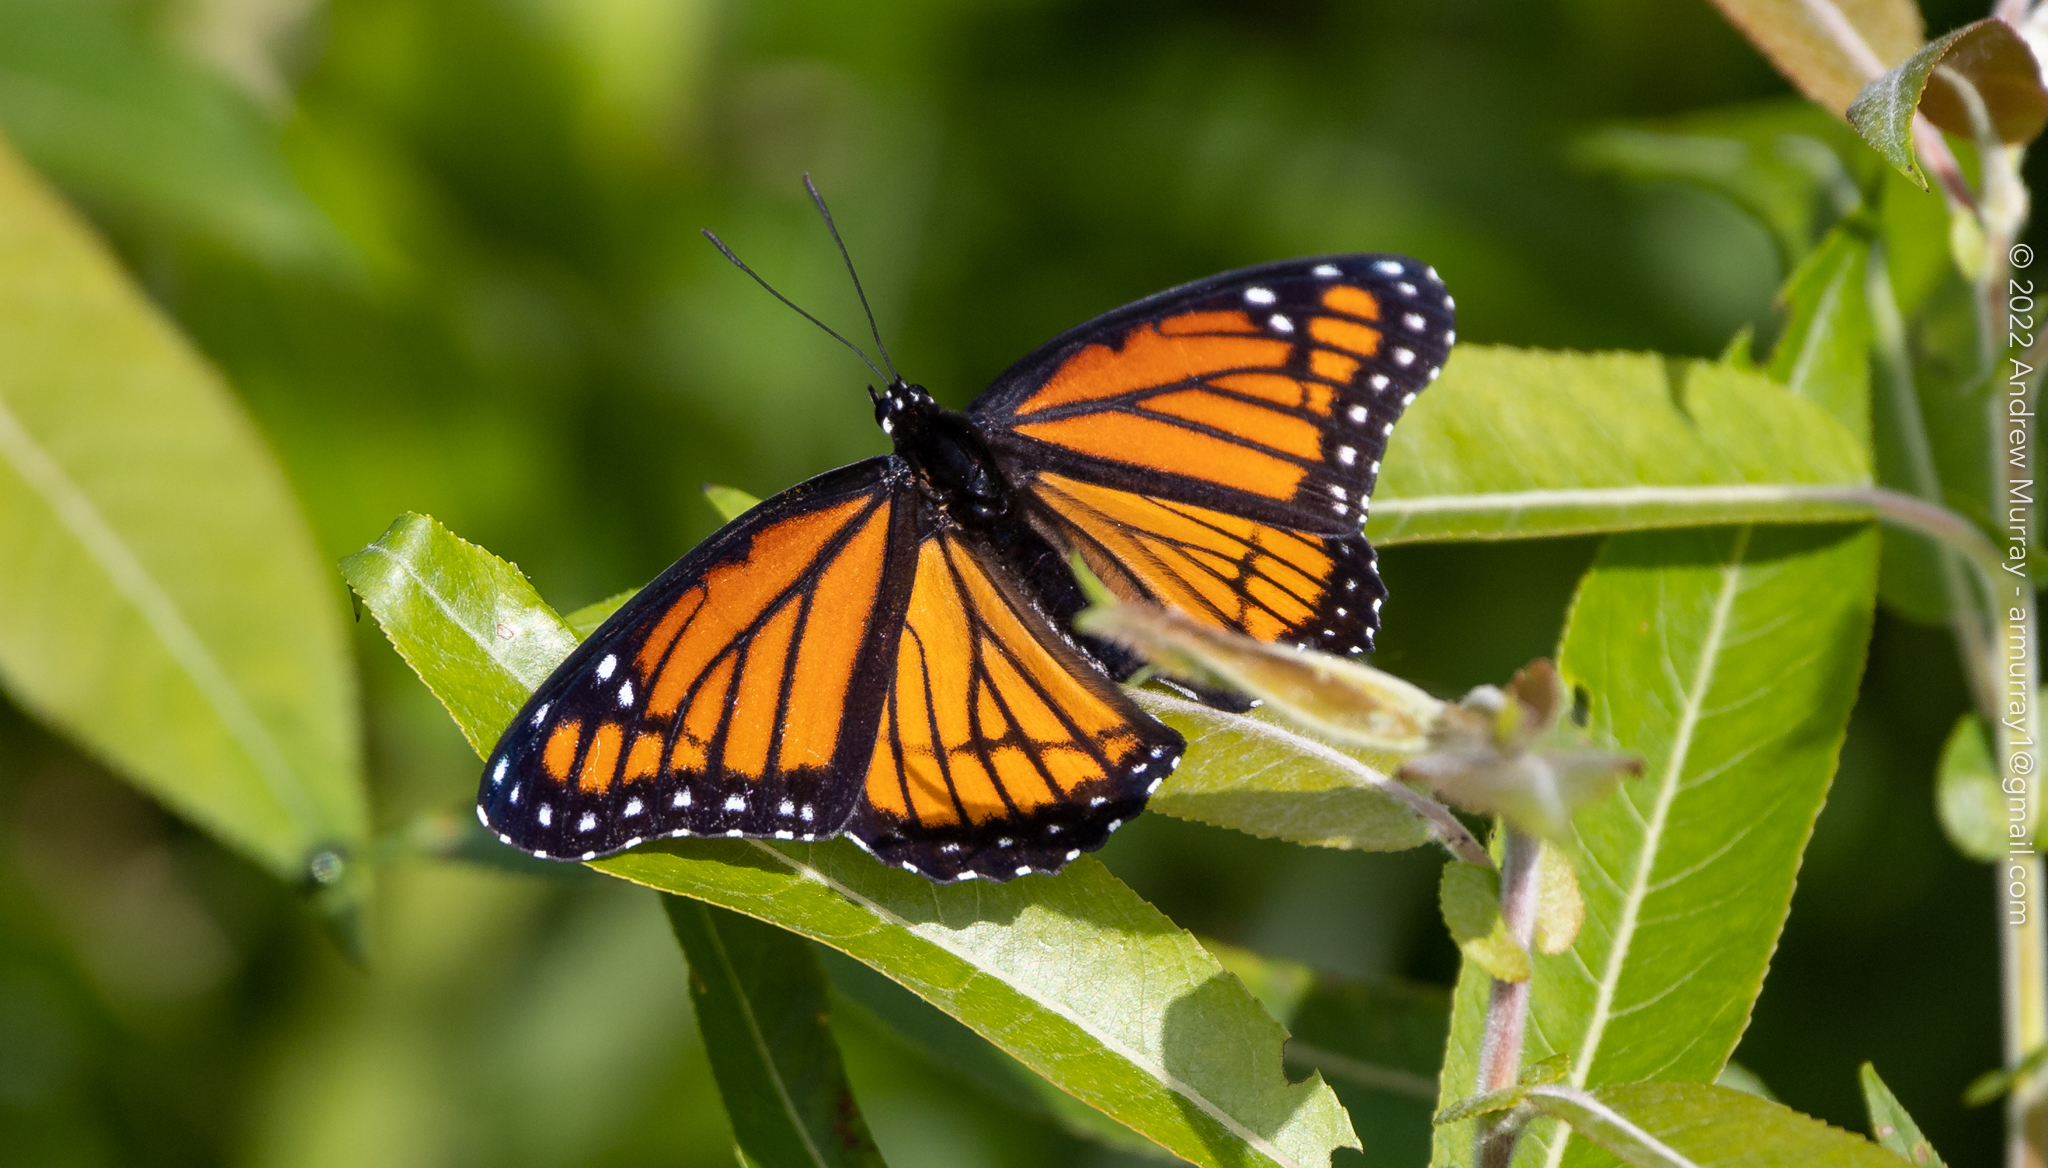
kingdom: Animalia
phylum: Arthropoda
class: Insecta
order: Lepidoptera
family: Nymphalidae
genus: Limenitis
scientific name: Limenitis archippus
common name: Viceroy
